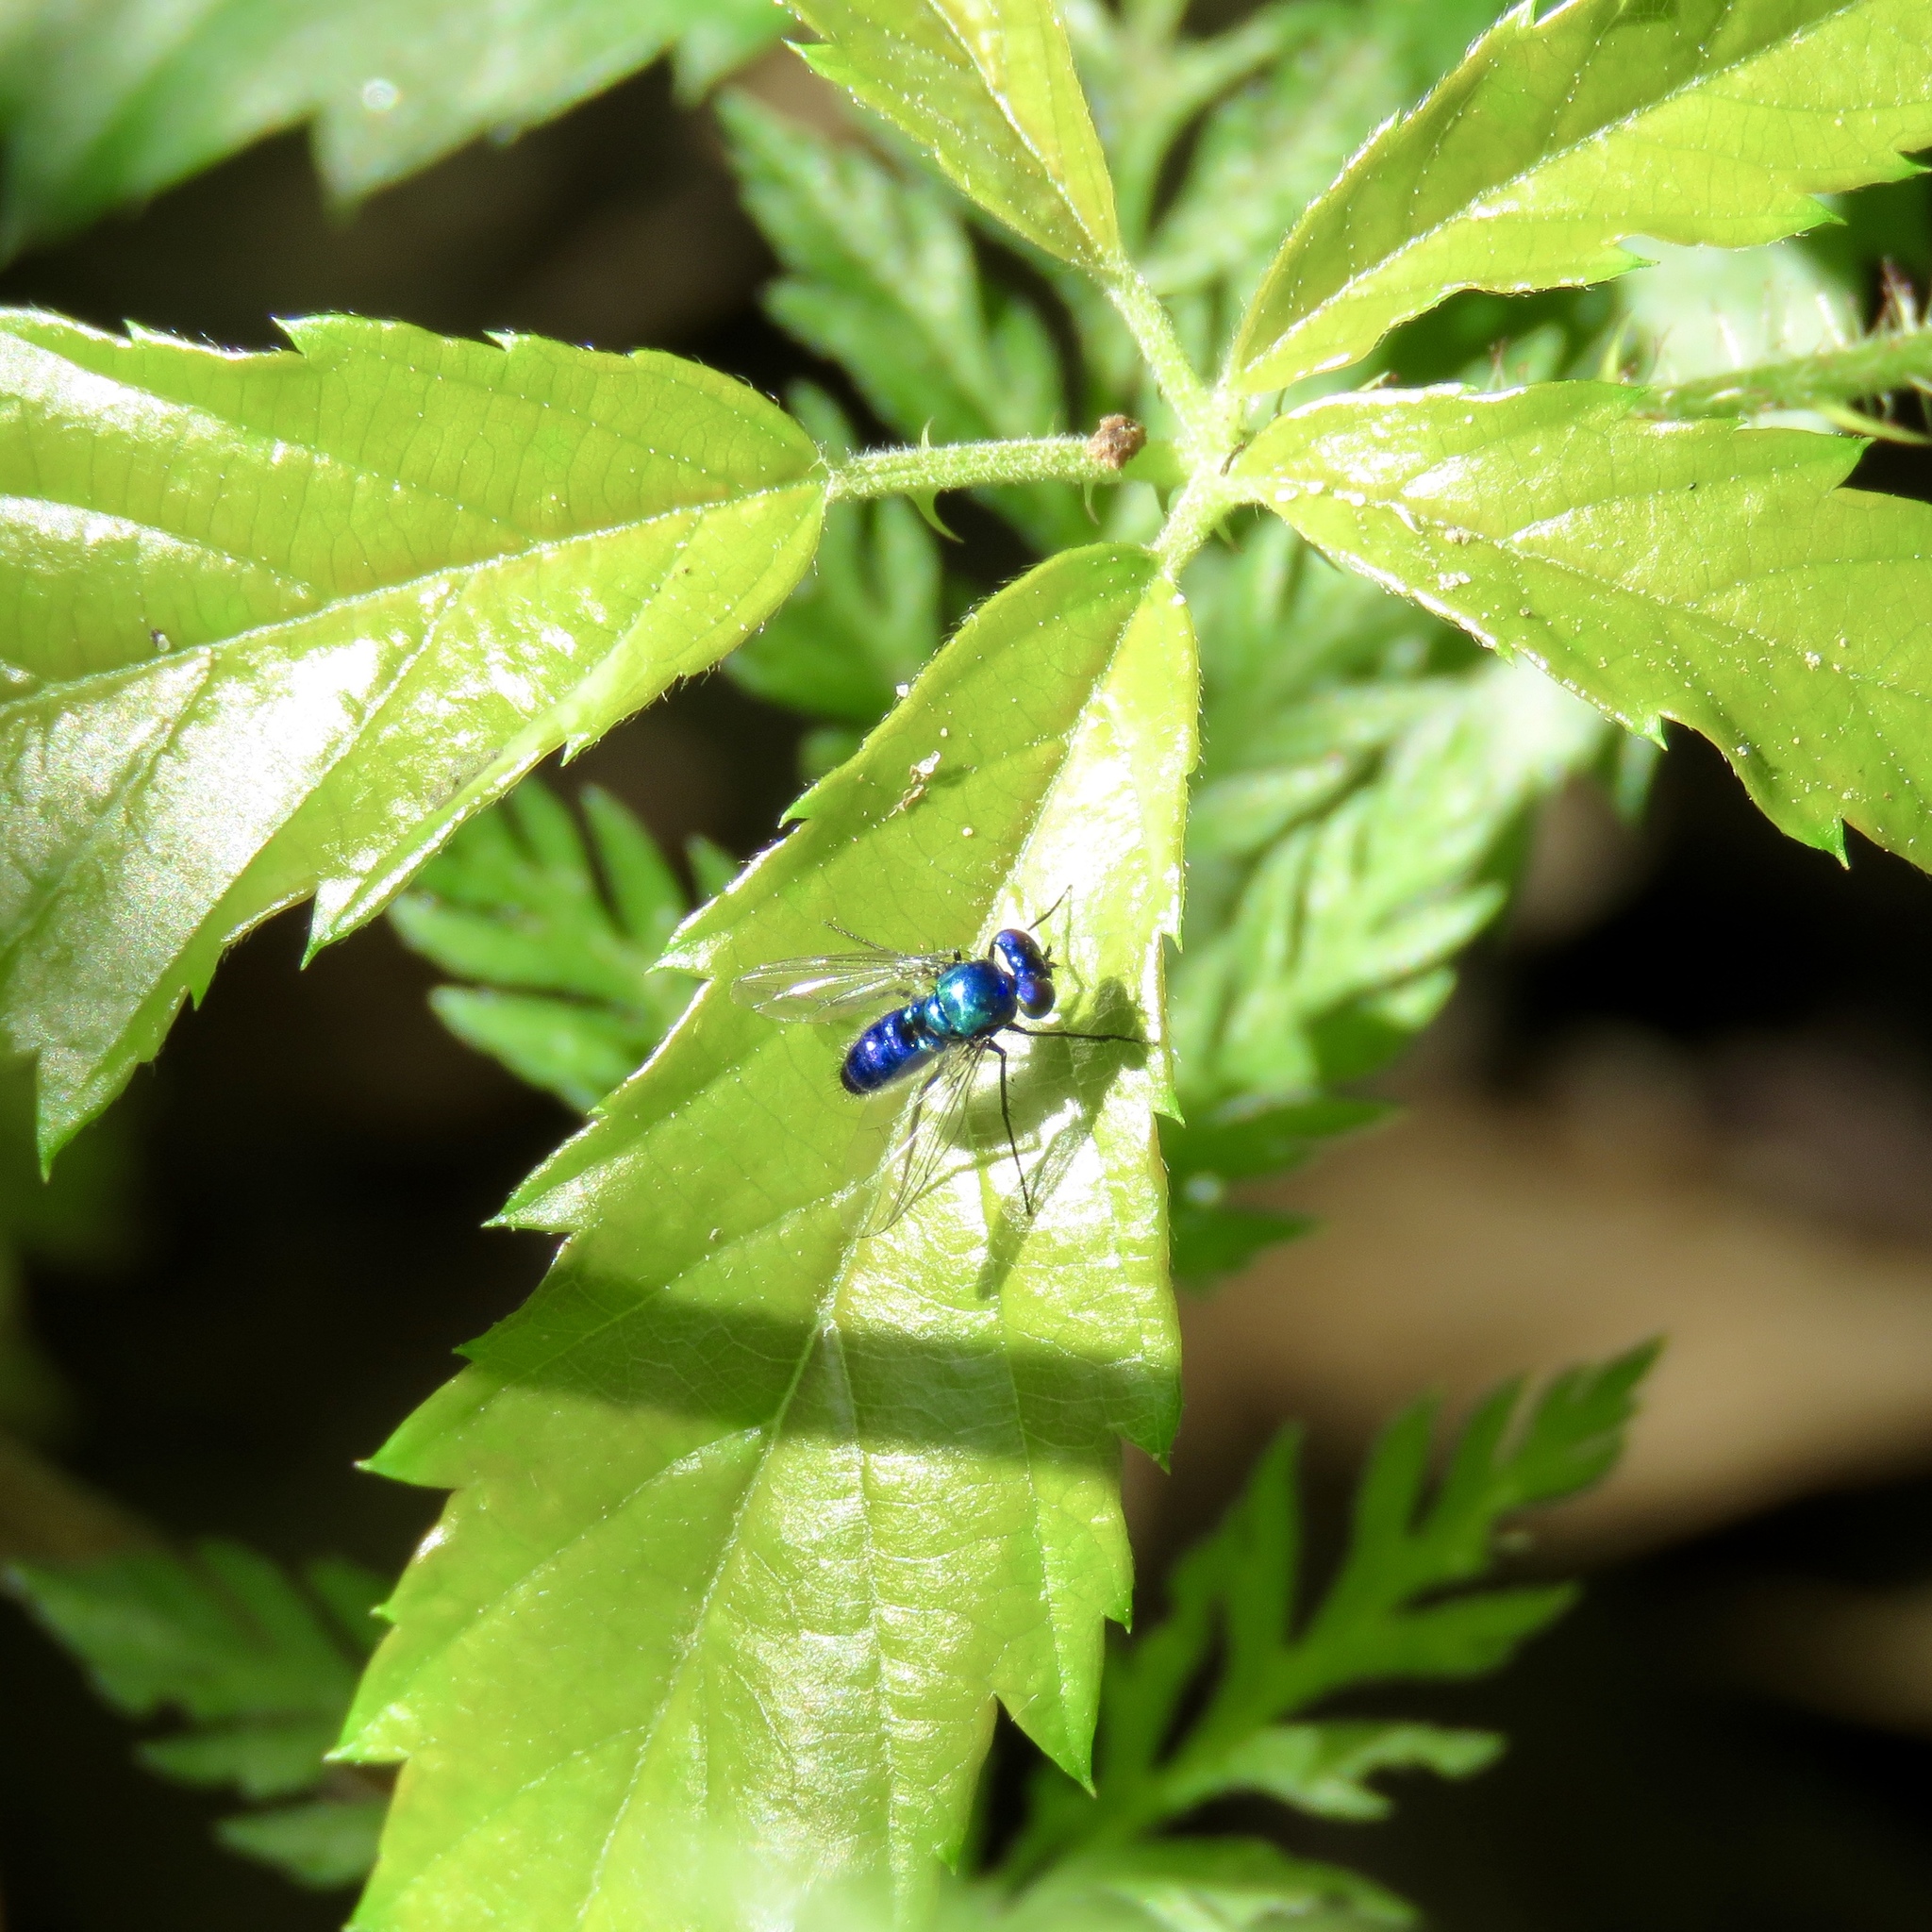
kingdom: Animalia
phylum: Arthropoda
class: Insecta
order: Diptera
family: Dolichopodidae
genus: Condylostylus
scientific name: Condylostylus mundus
